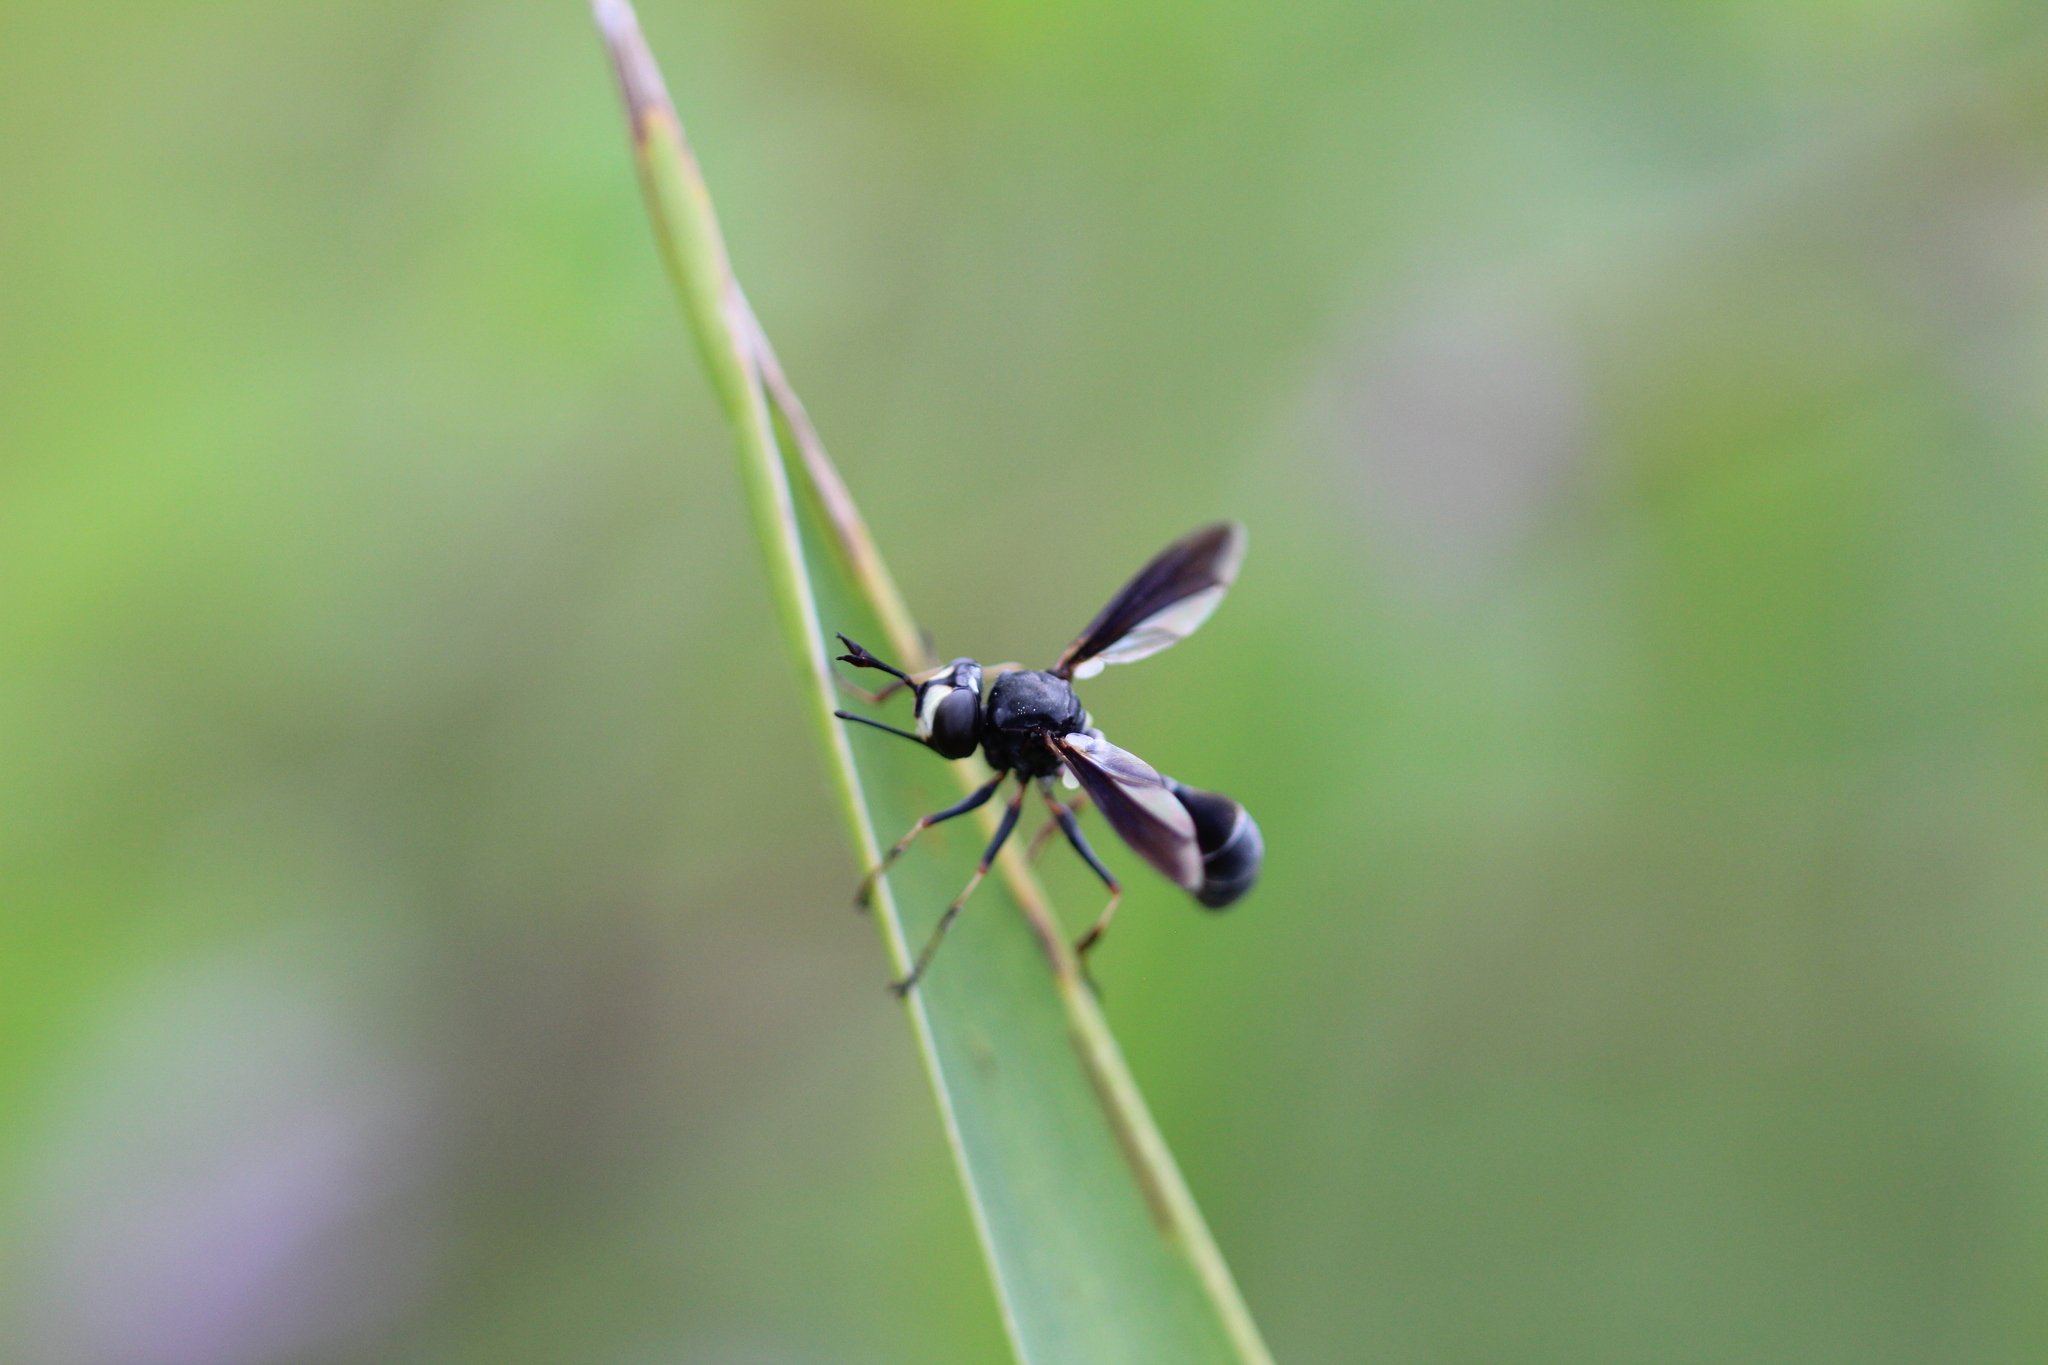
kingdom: Animalia
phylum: Arthropoda
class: Insecta
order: Diptera
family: Conopidae
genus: Physocephala
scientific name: Physocephala tibialis
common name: Common eastern physocephala
